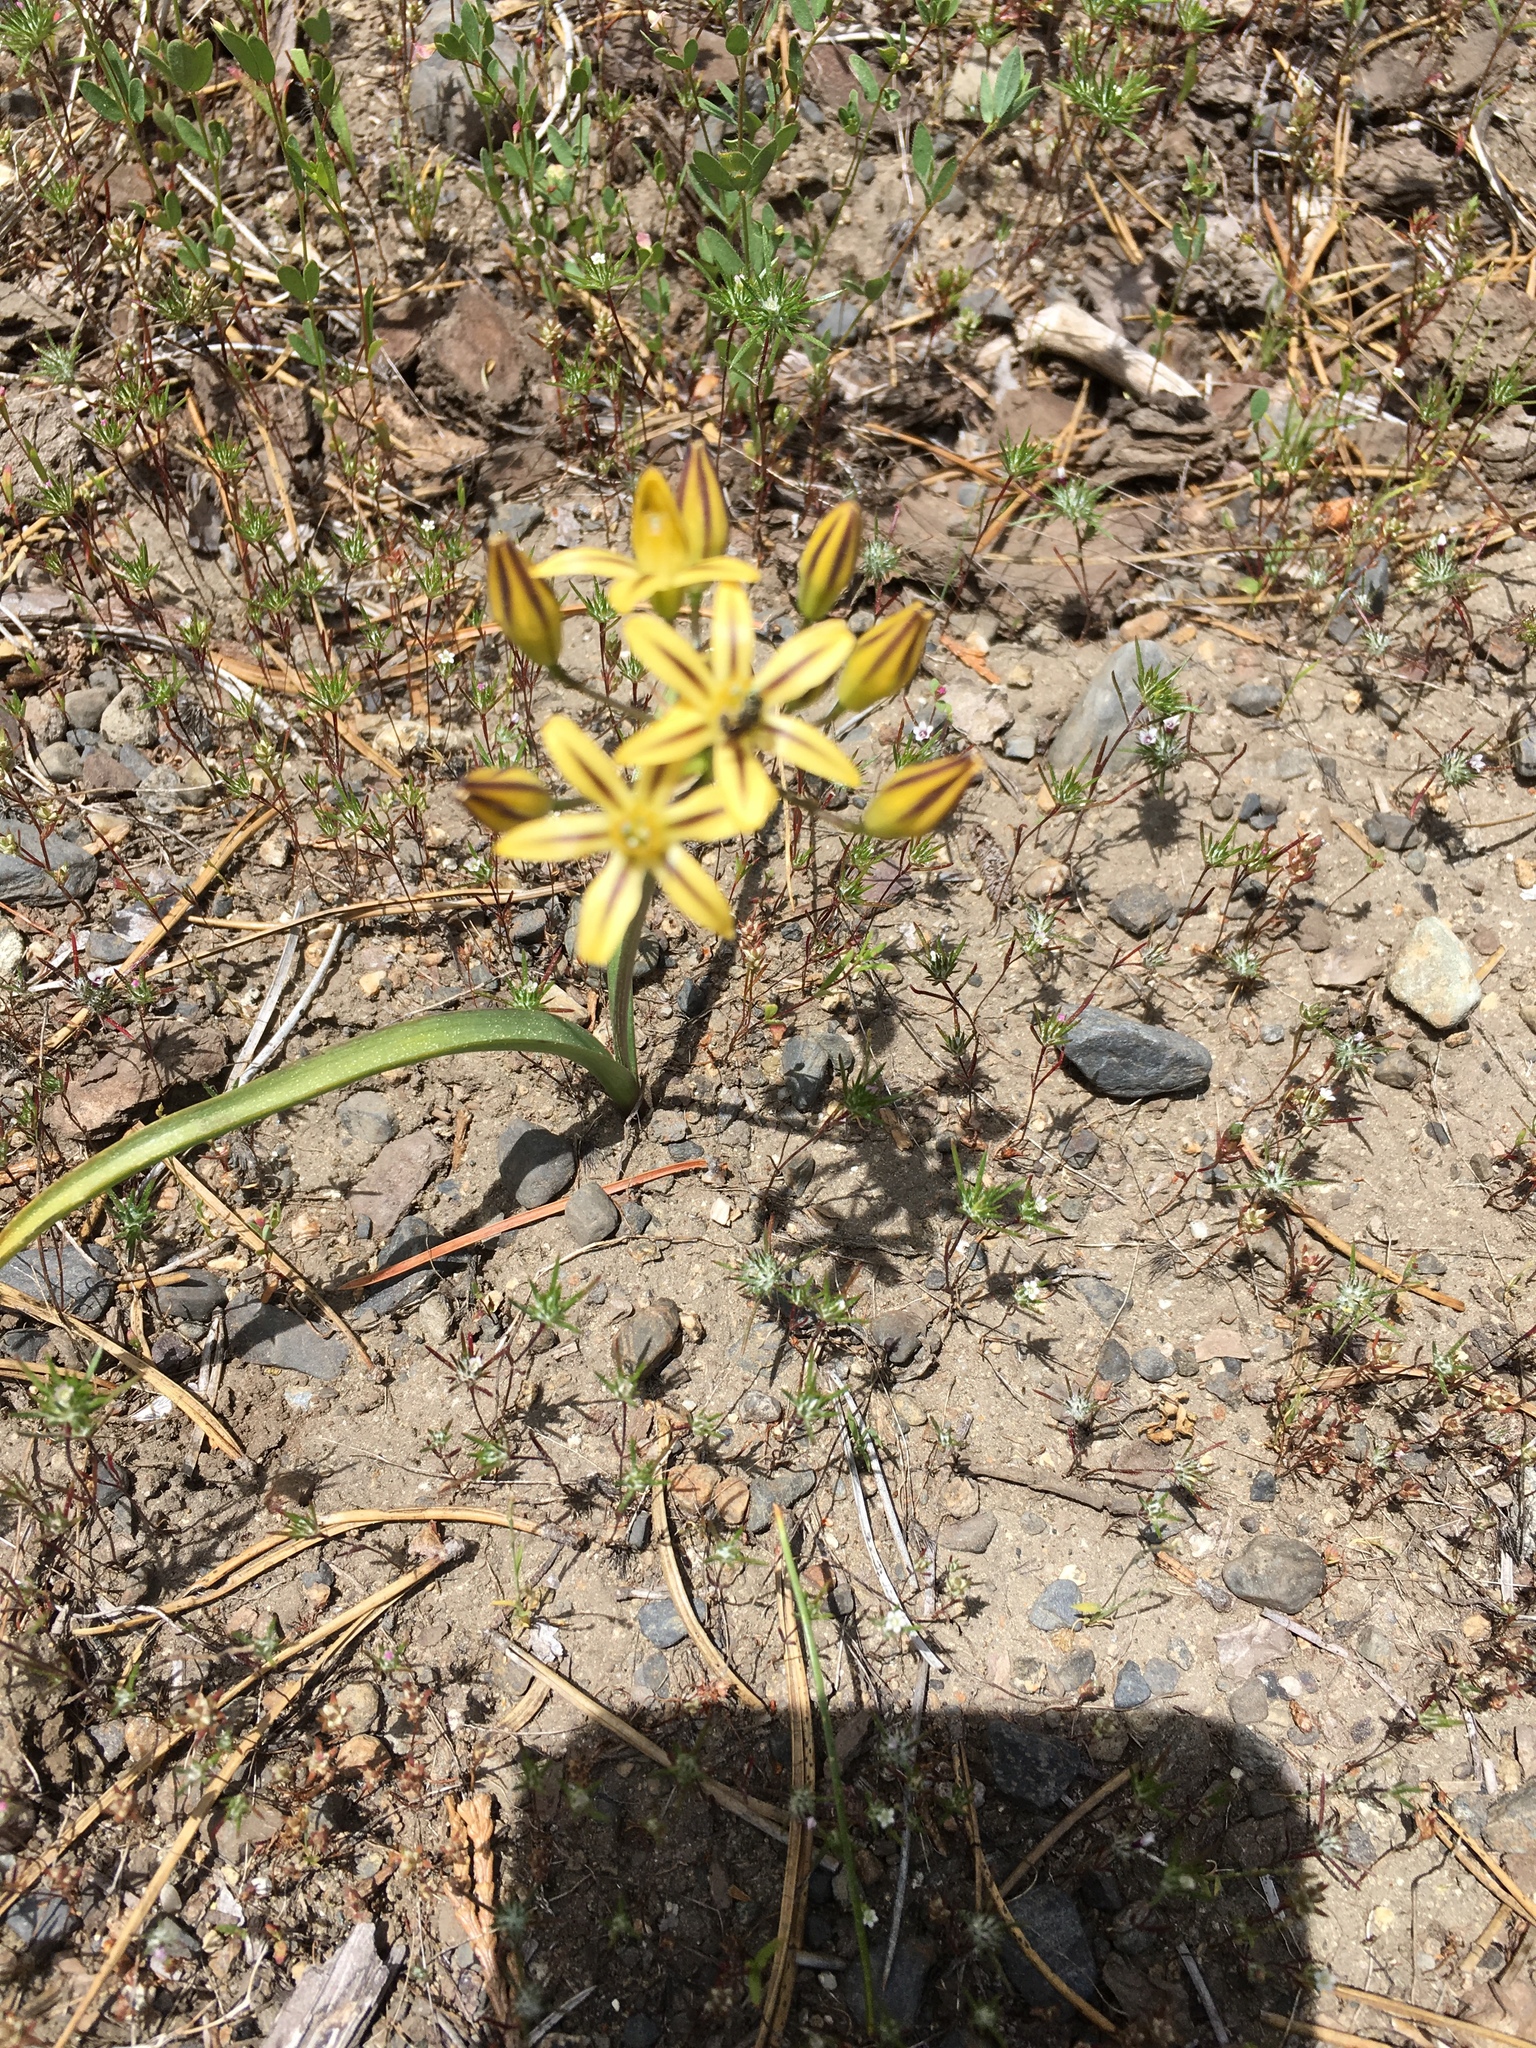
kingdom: Plantae
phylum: Tracheophyta
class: Liliopsida
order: Asparagales
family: Asparagaceae
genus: Triteleia
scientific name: Triteleia ixioides
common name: Yellow-brodiaea
